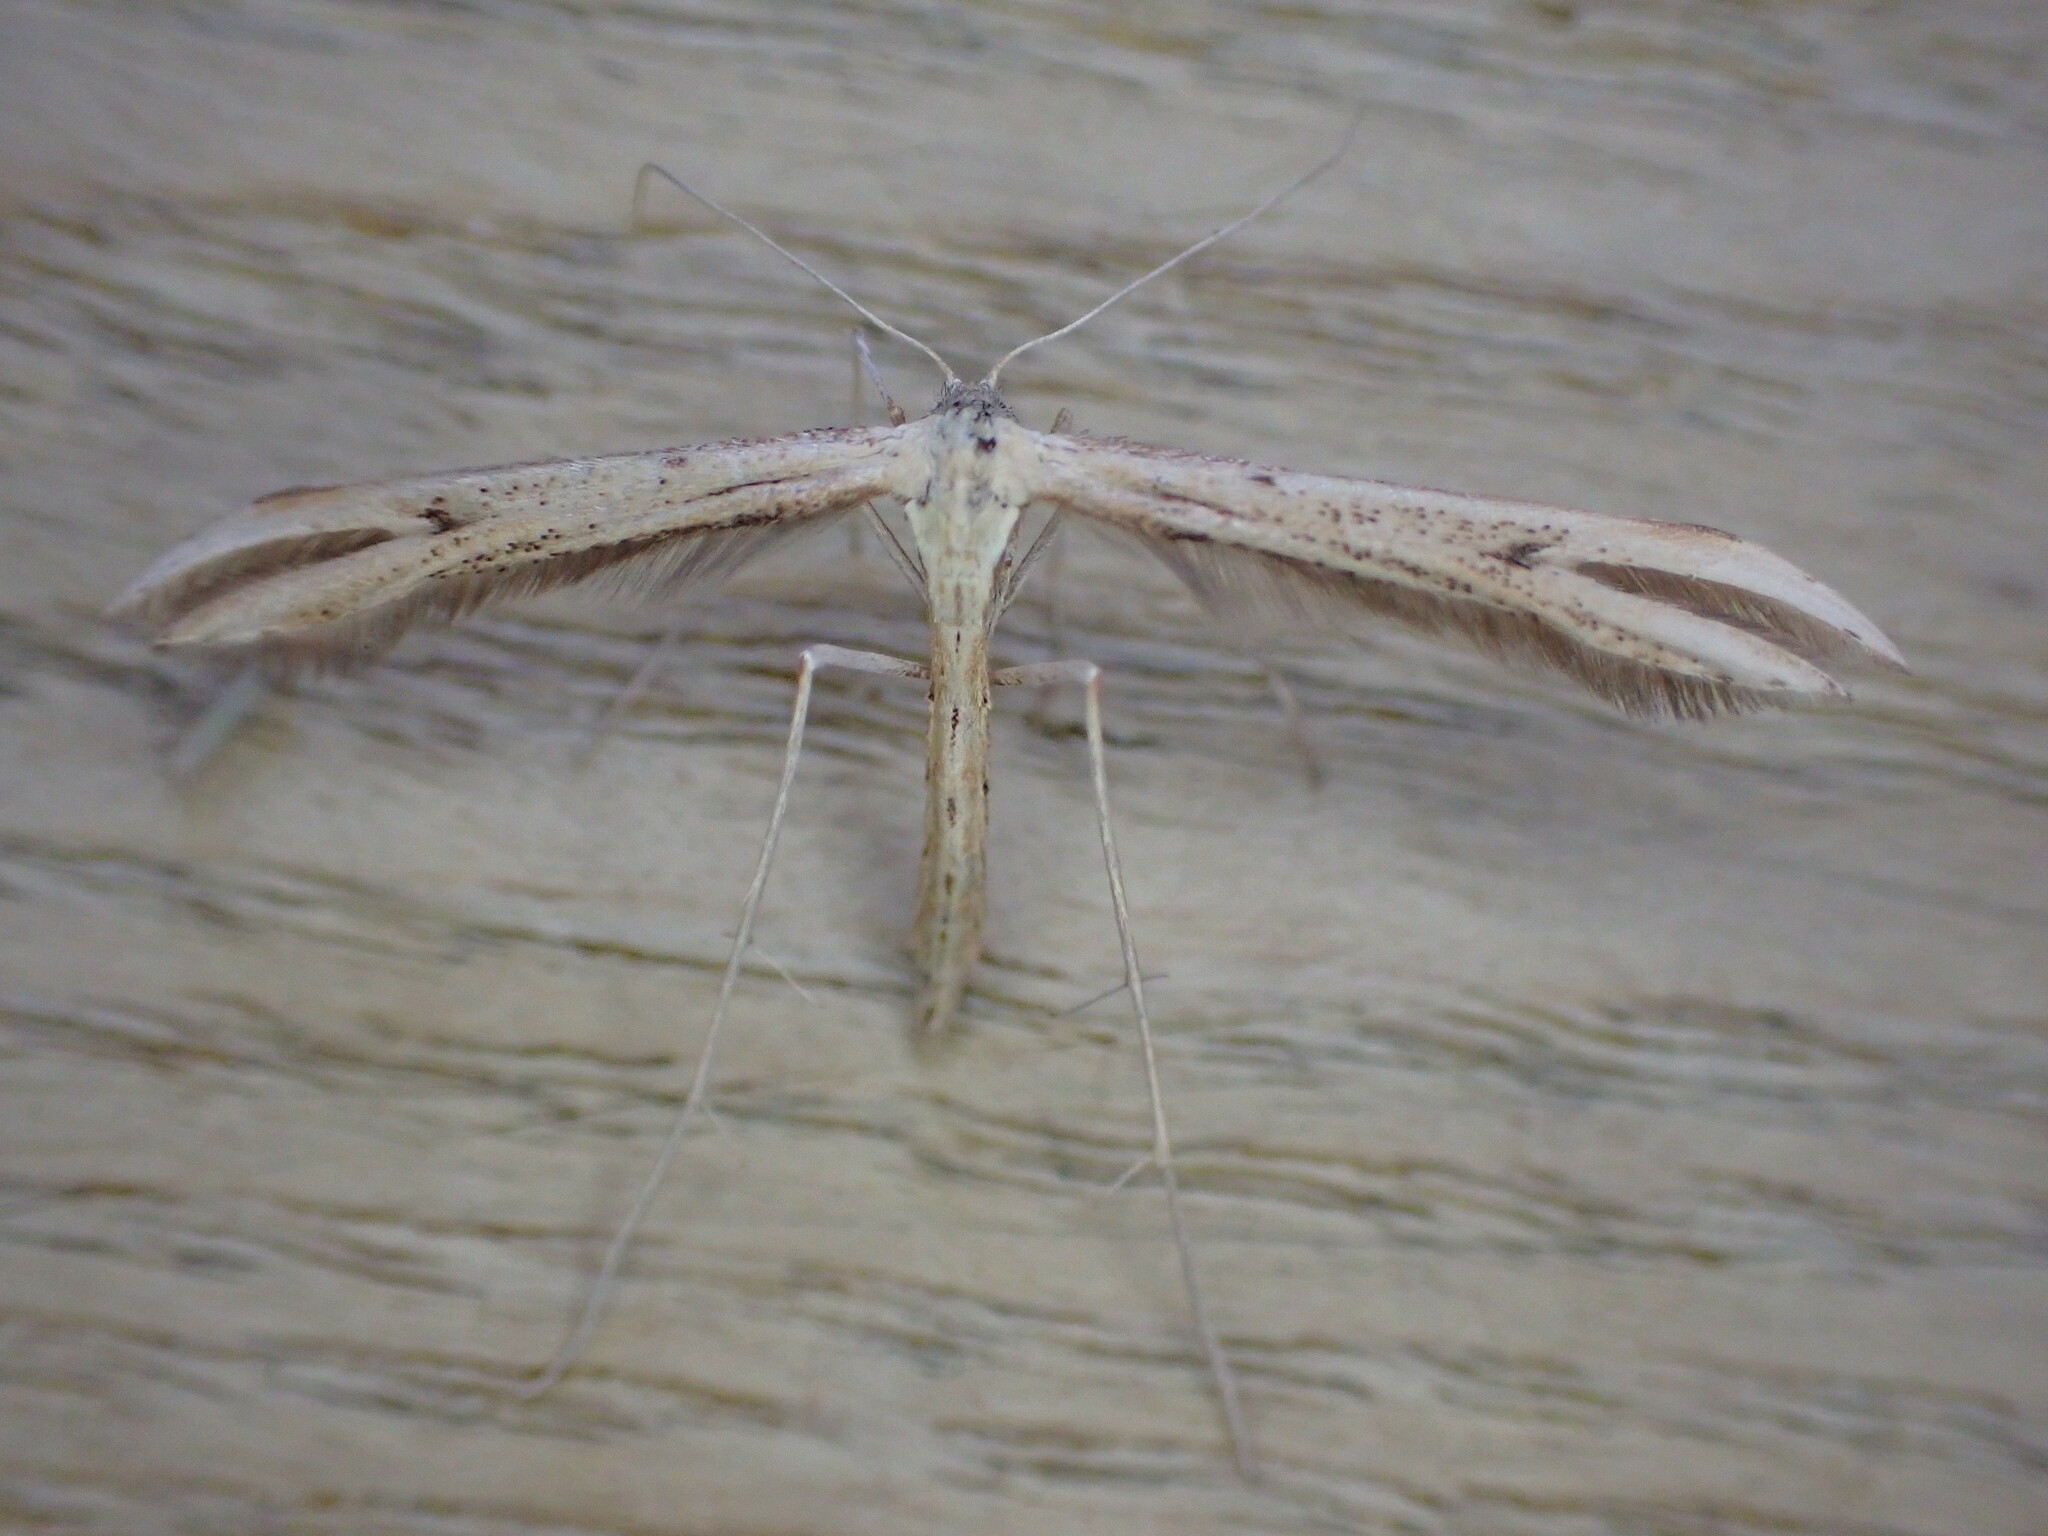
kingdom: Animalia
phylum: Arthropoda
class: Insecta
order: Lepidoptera
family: Pterophoridae
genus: Emmelina
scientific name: Emmelina monodactyla
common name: Common plume
